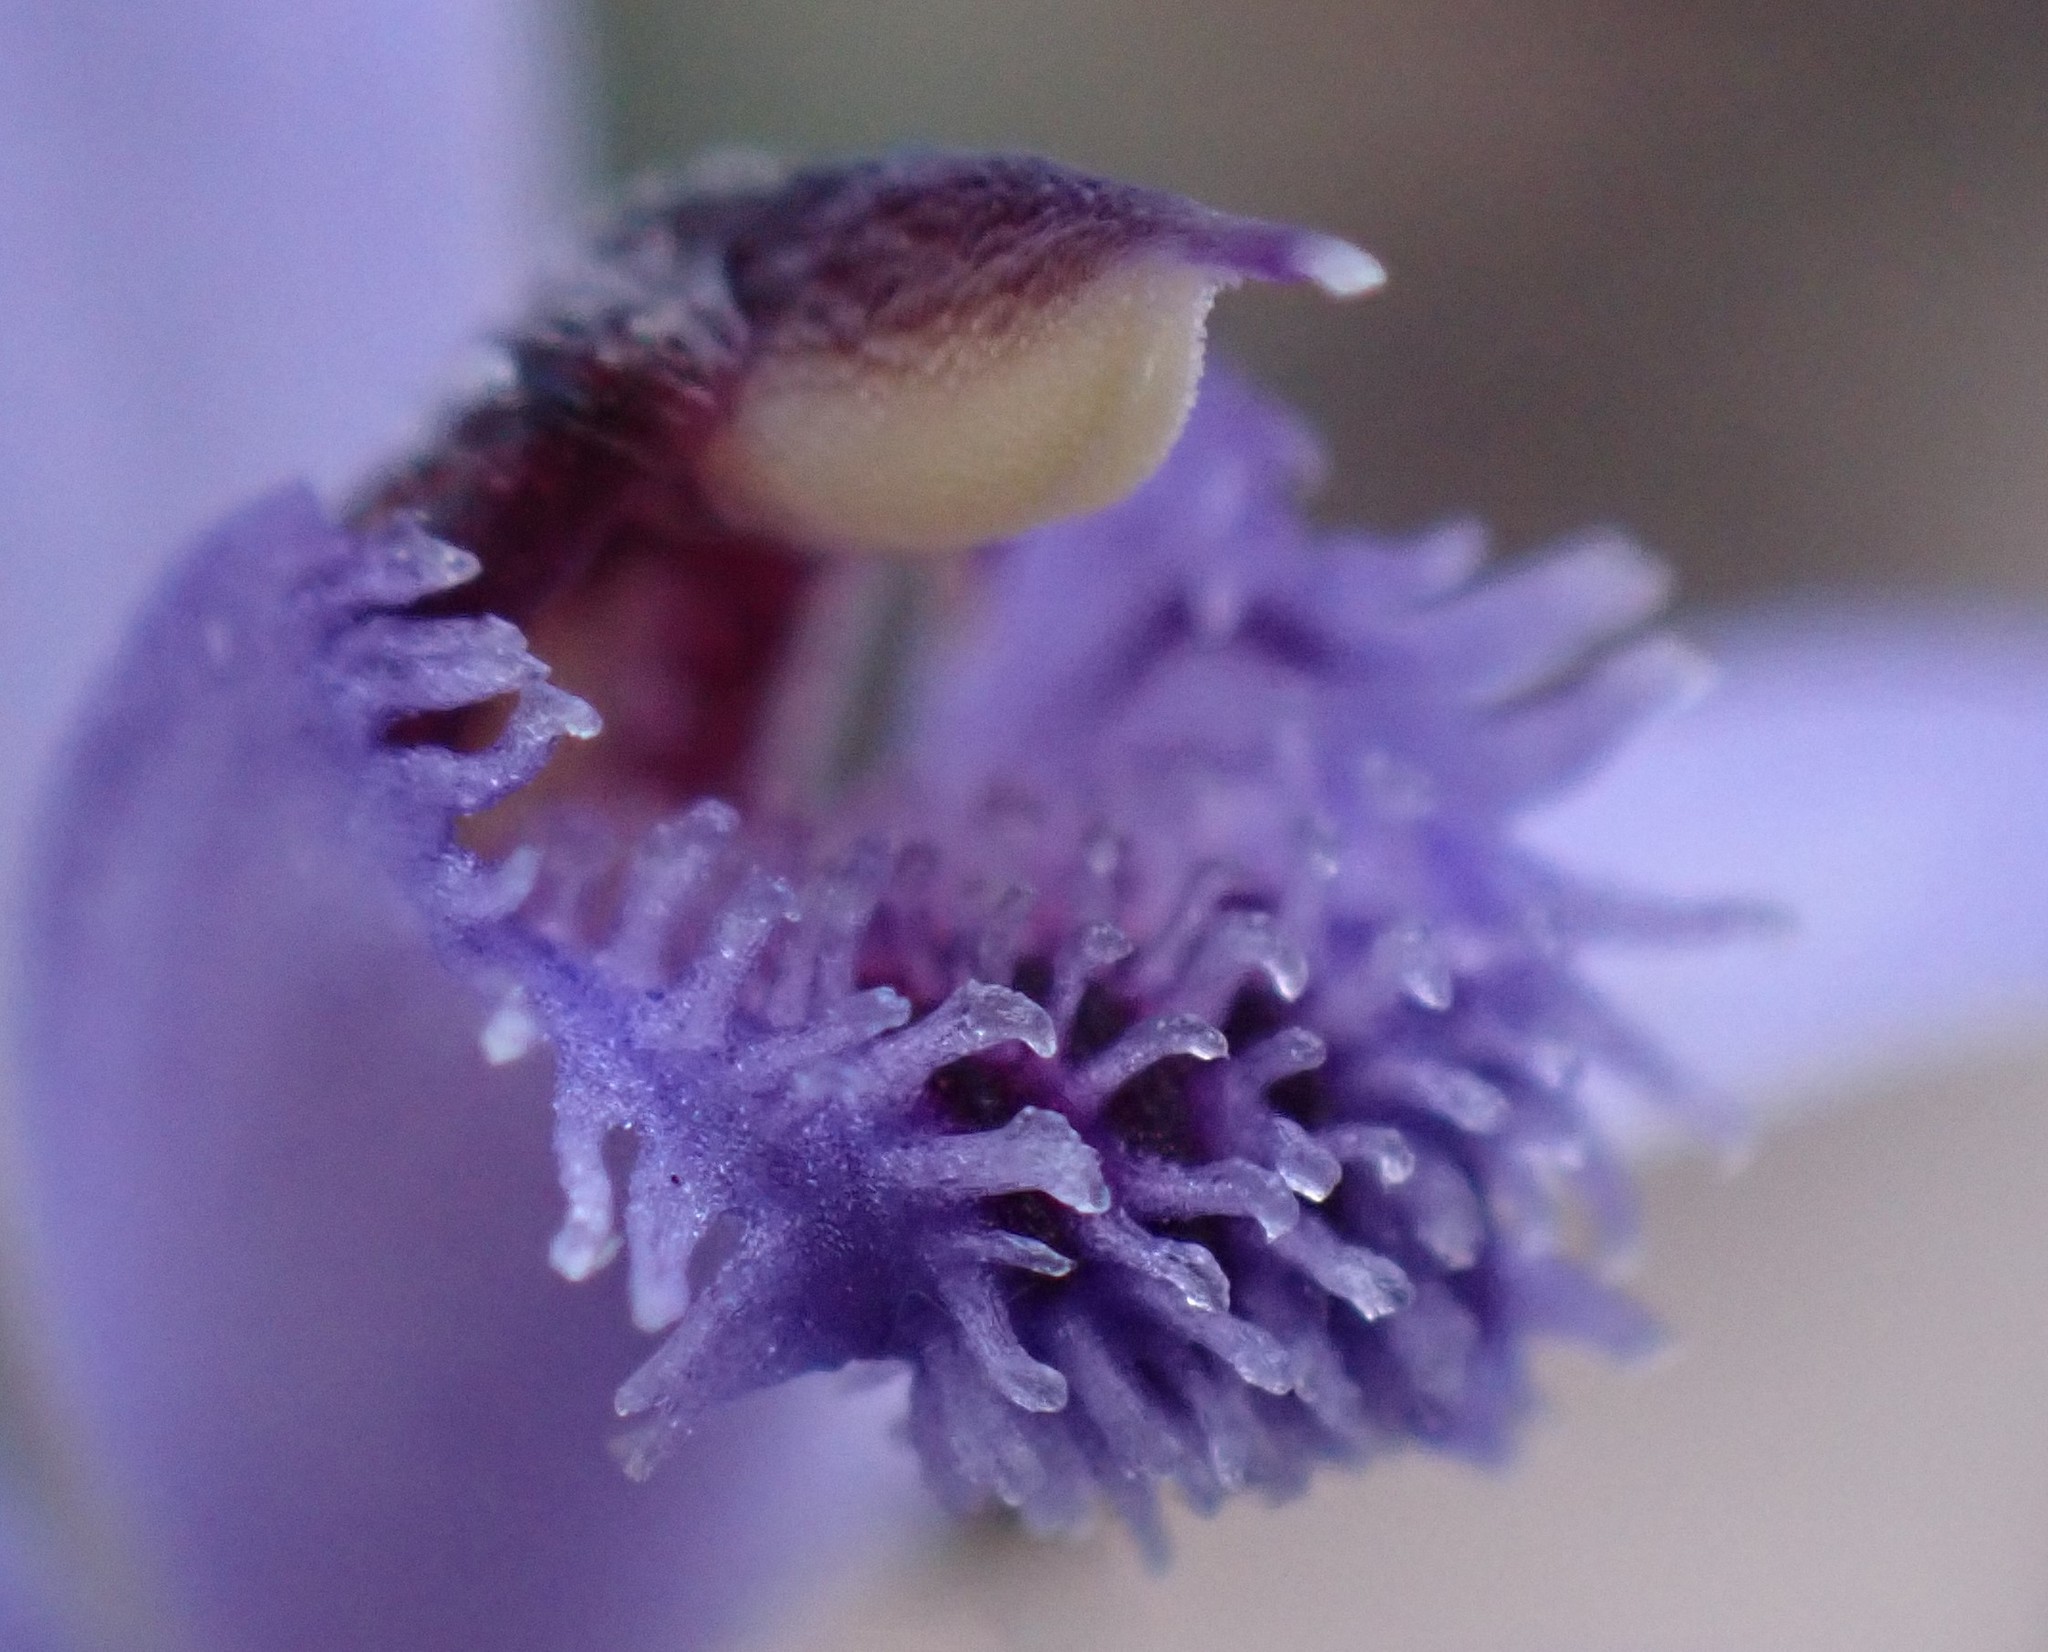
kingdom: Plantae
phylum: Tracheophyta
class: Liliopsida
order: Asparagales
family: Orchidaceae
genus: Pheladenia
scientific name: Pheladenia deformis
